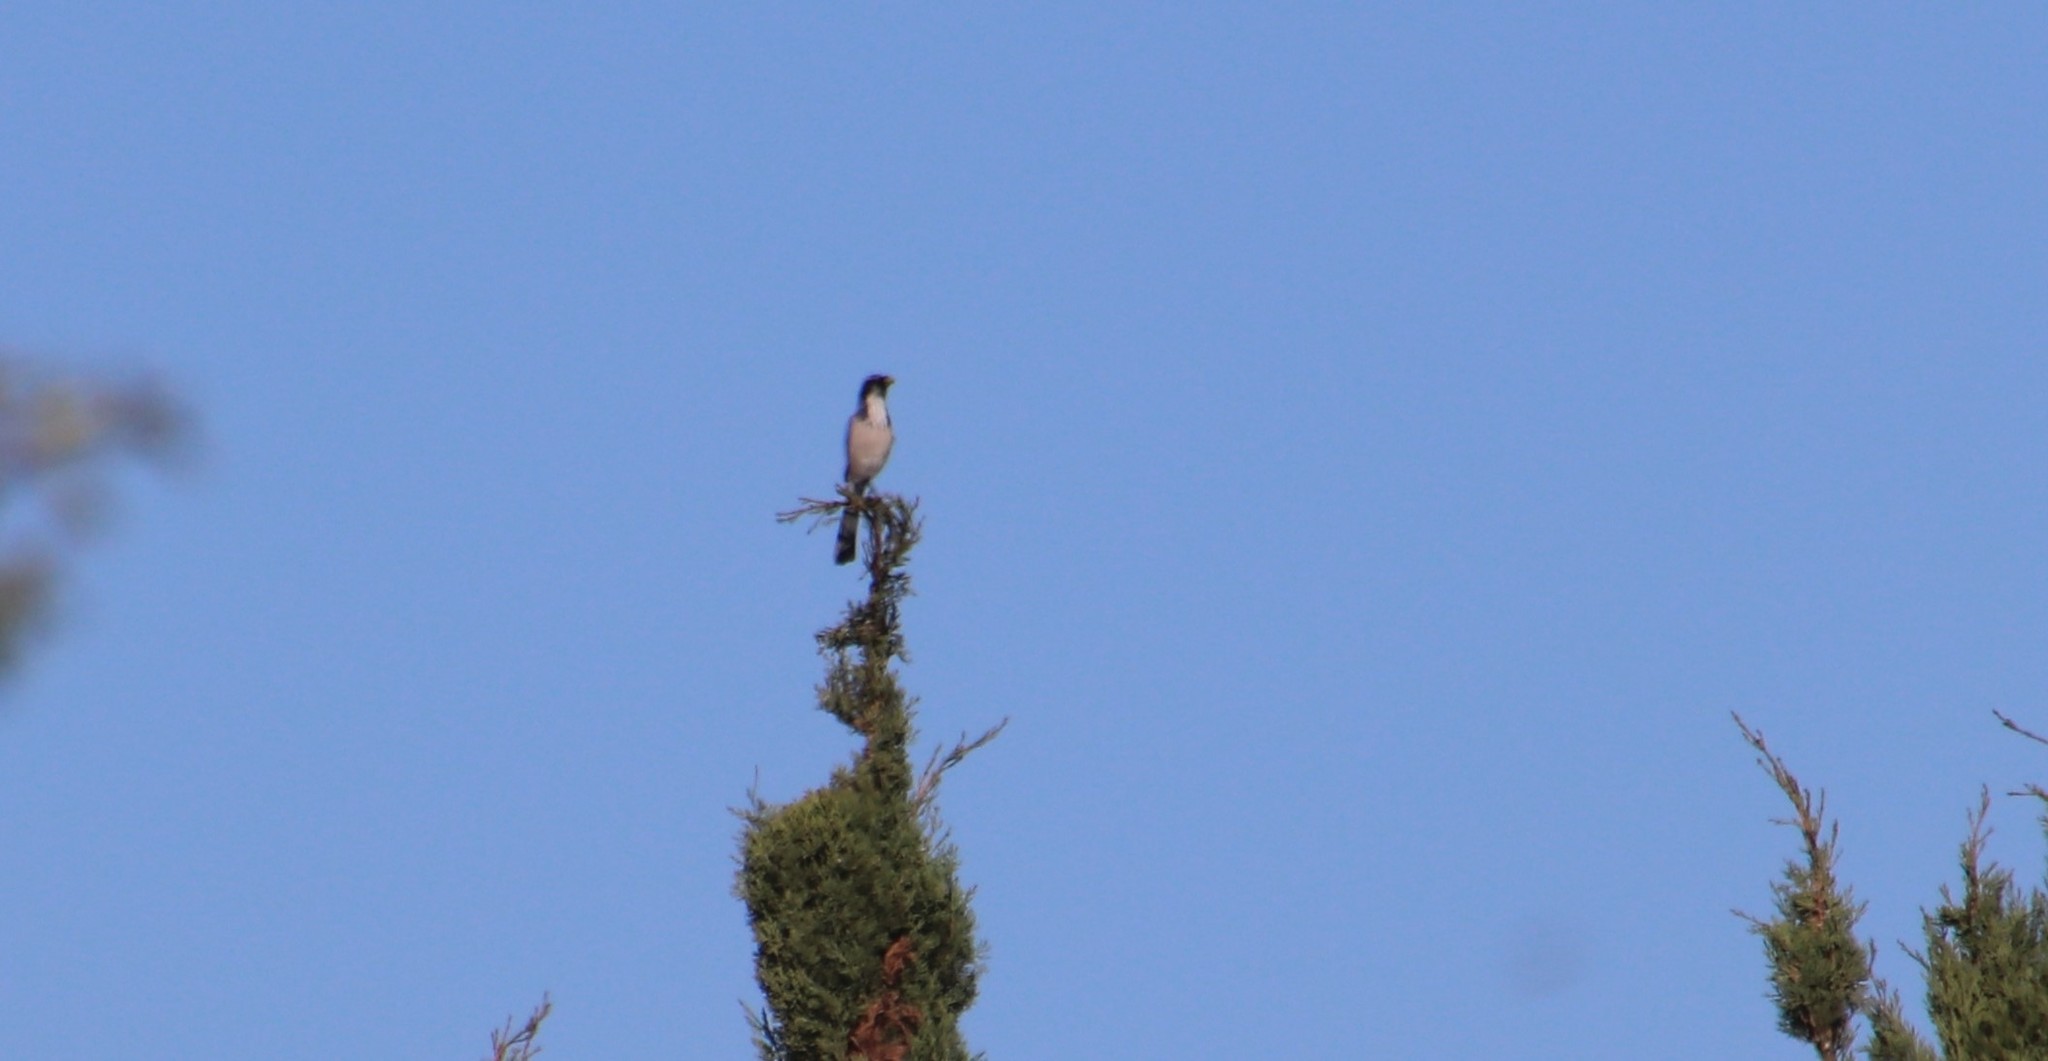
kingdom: Animalia
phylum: Chordata
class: Aves
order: Passeriformes
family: Corvidae
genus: Aphelocoma
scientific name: Aphelocoma californica
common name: California scrub-jay
